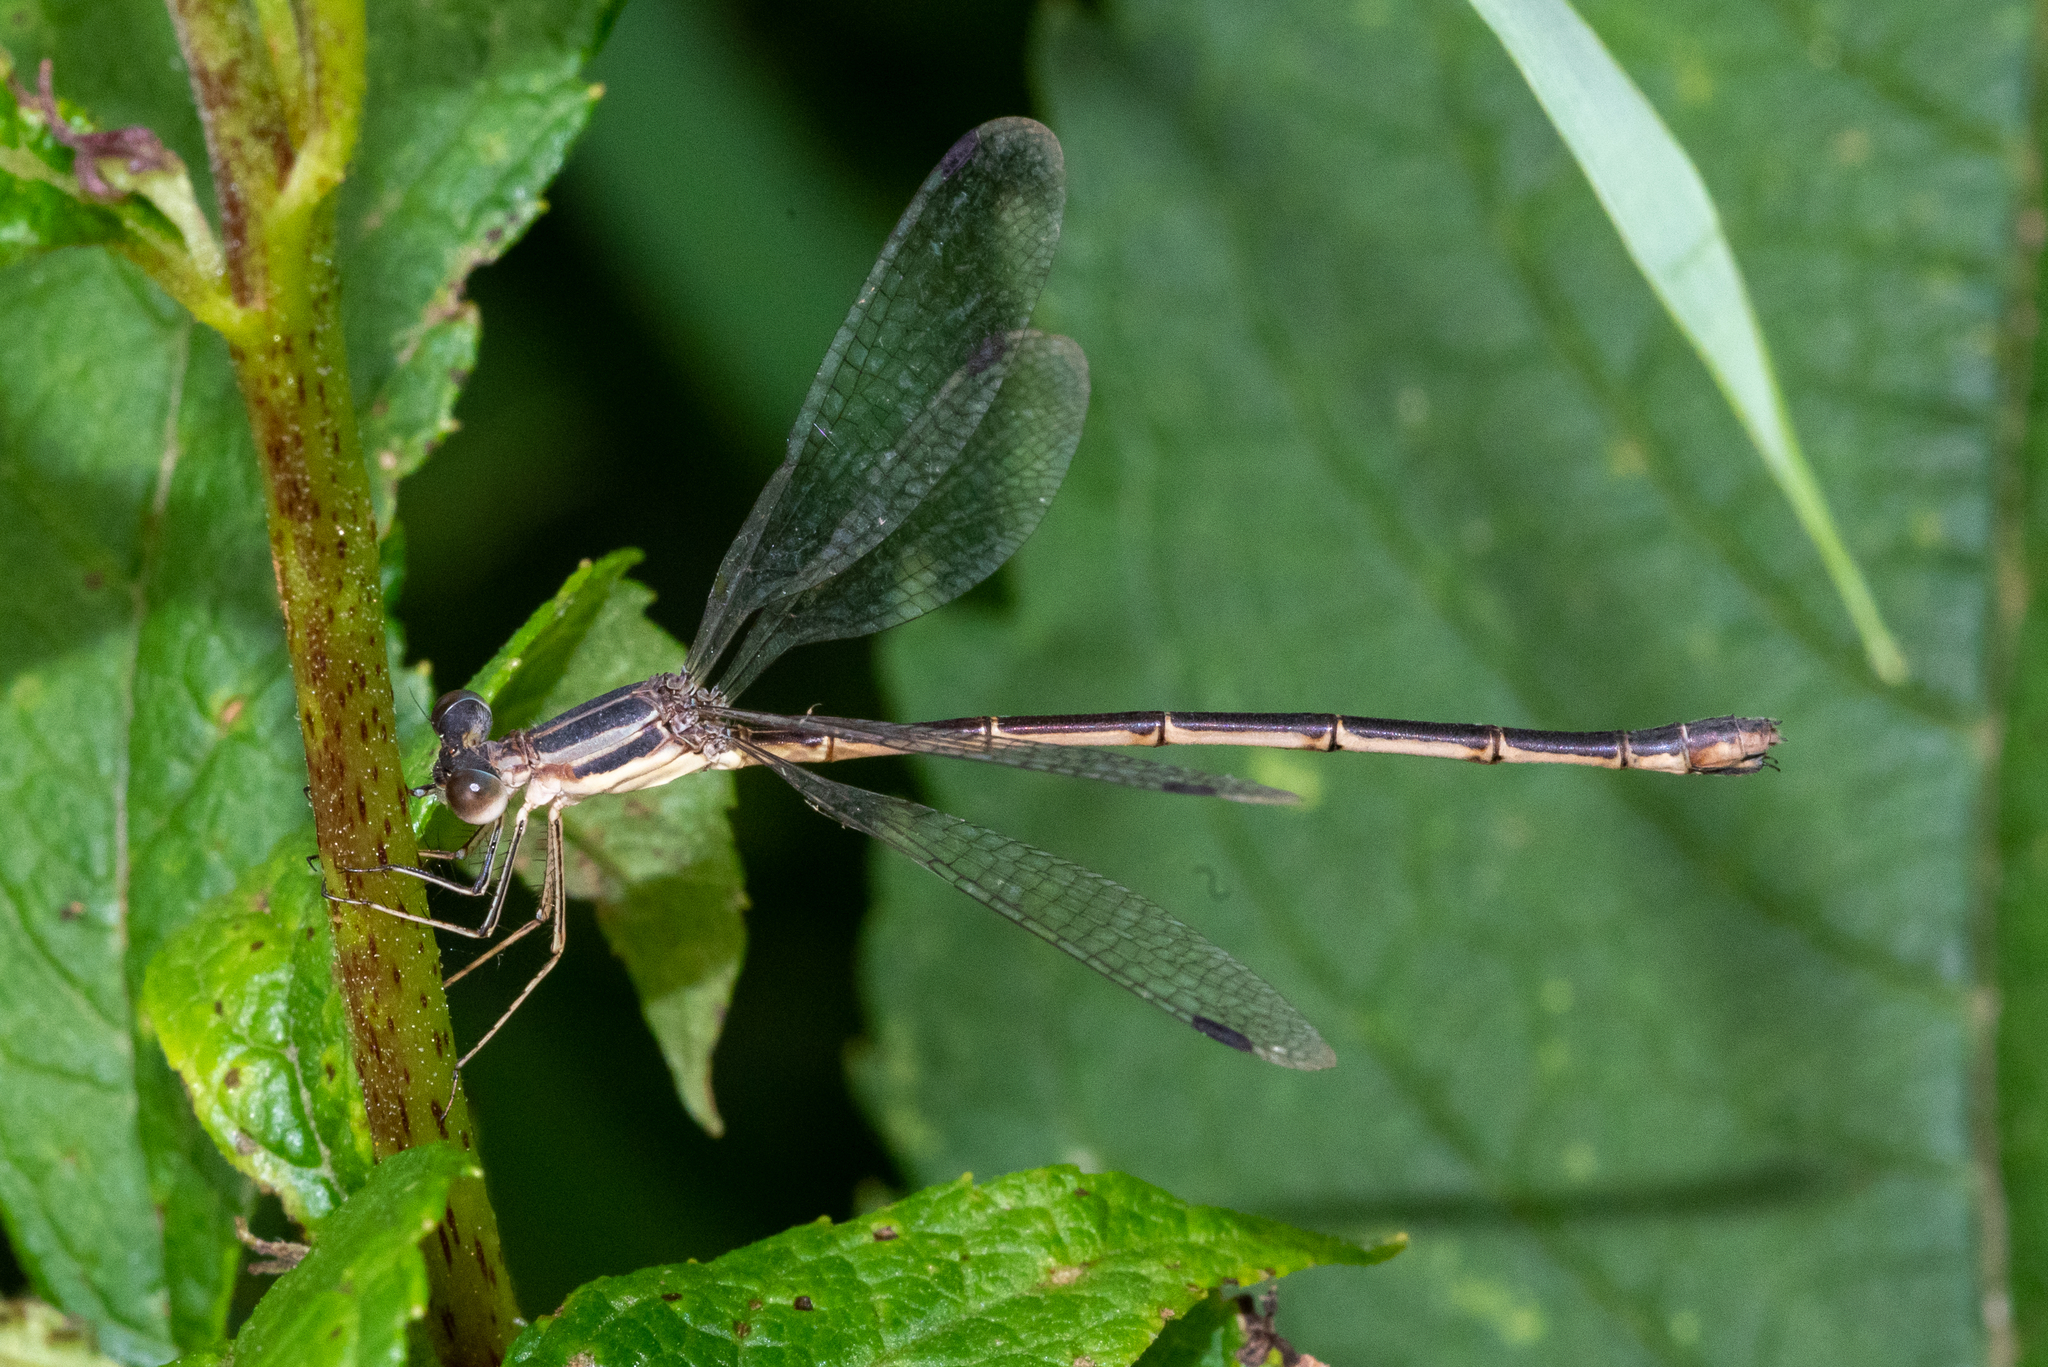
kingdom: Animalia
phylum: Arthropoda
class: Insecta
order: Odonata
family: Lestidae
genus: Lestes
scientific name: Lestes rectangularis
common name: Slender spreadwing
